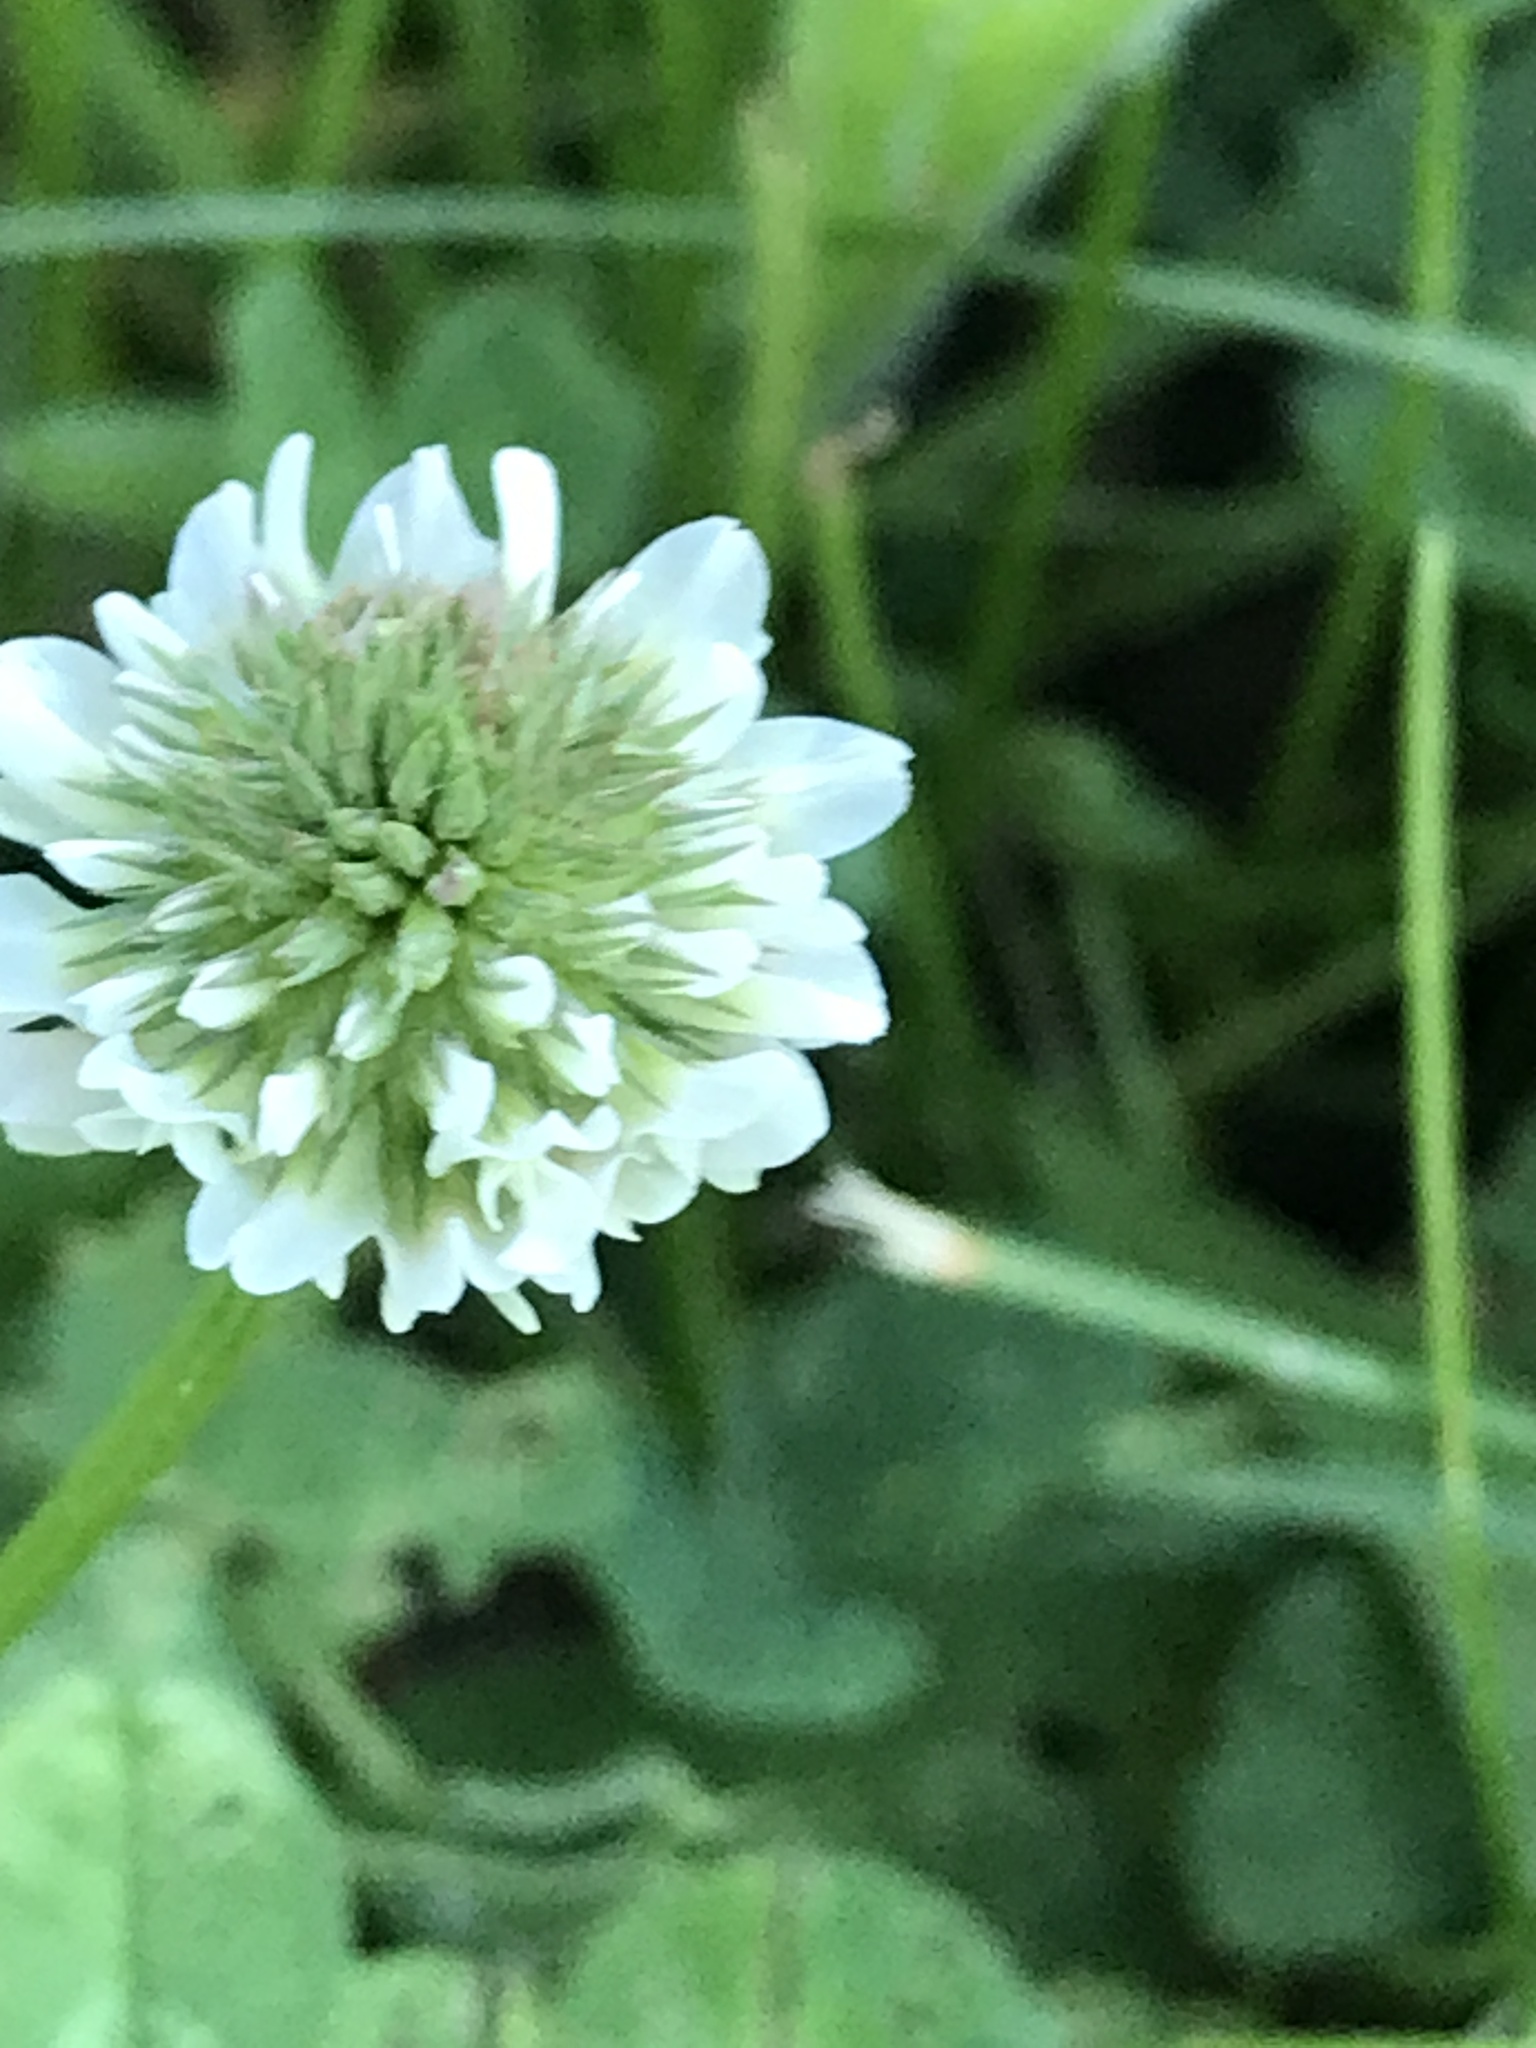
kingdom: Plantae
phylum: Tracheophyta
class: Magnoliopsida
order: Fabales
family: Fabaceae
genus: Trifolium
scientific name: Trifolium repens
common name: White clover
